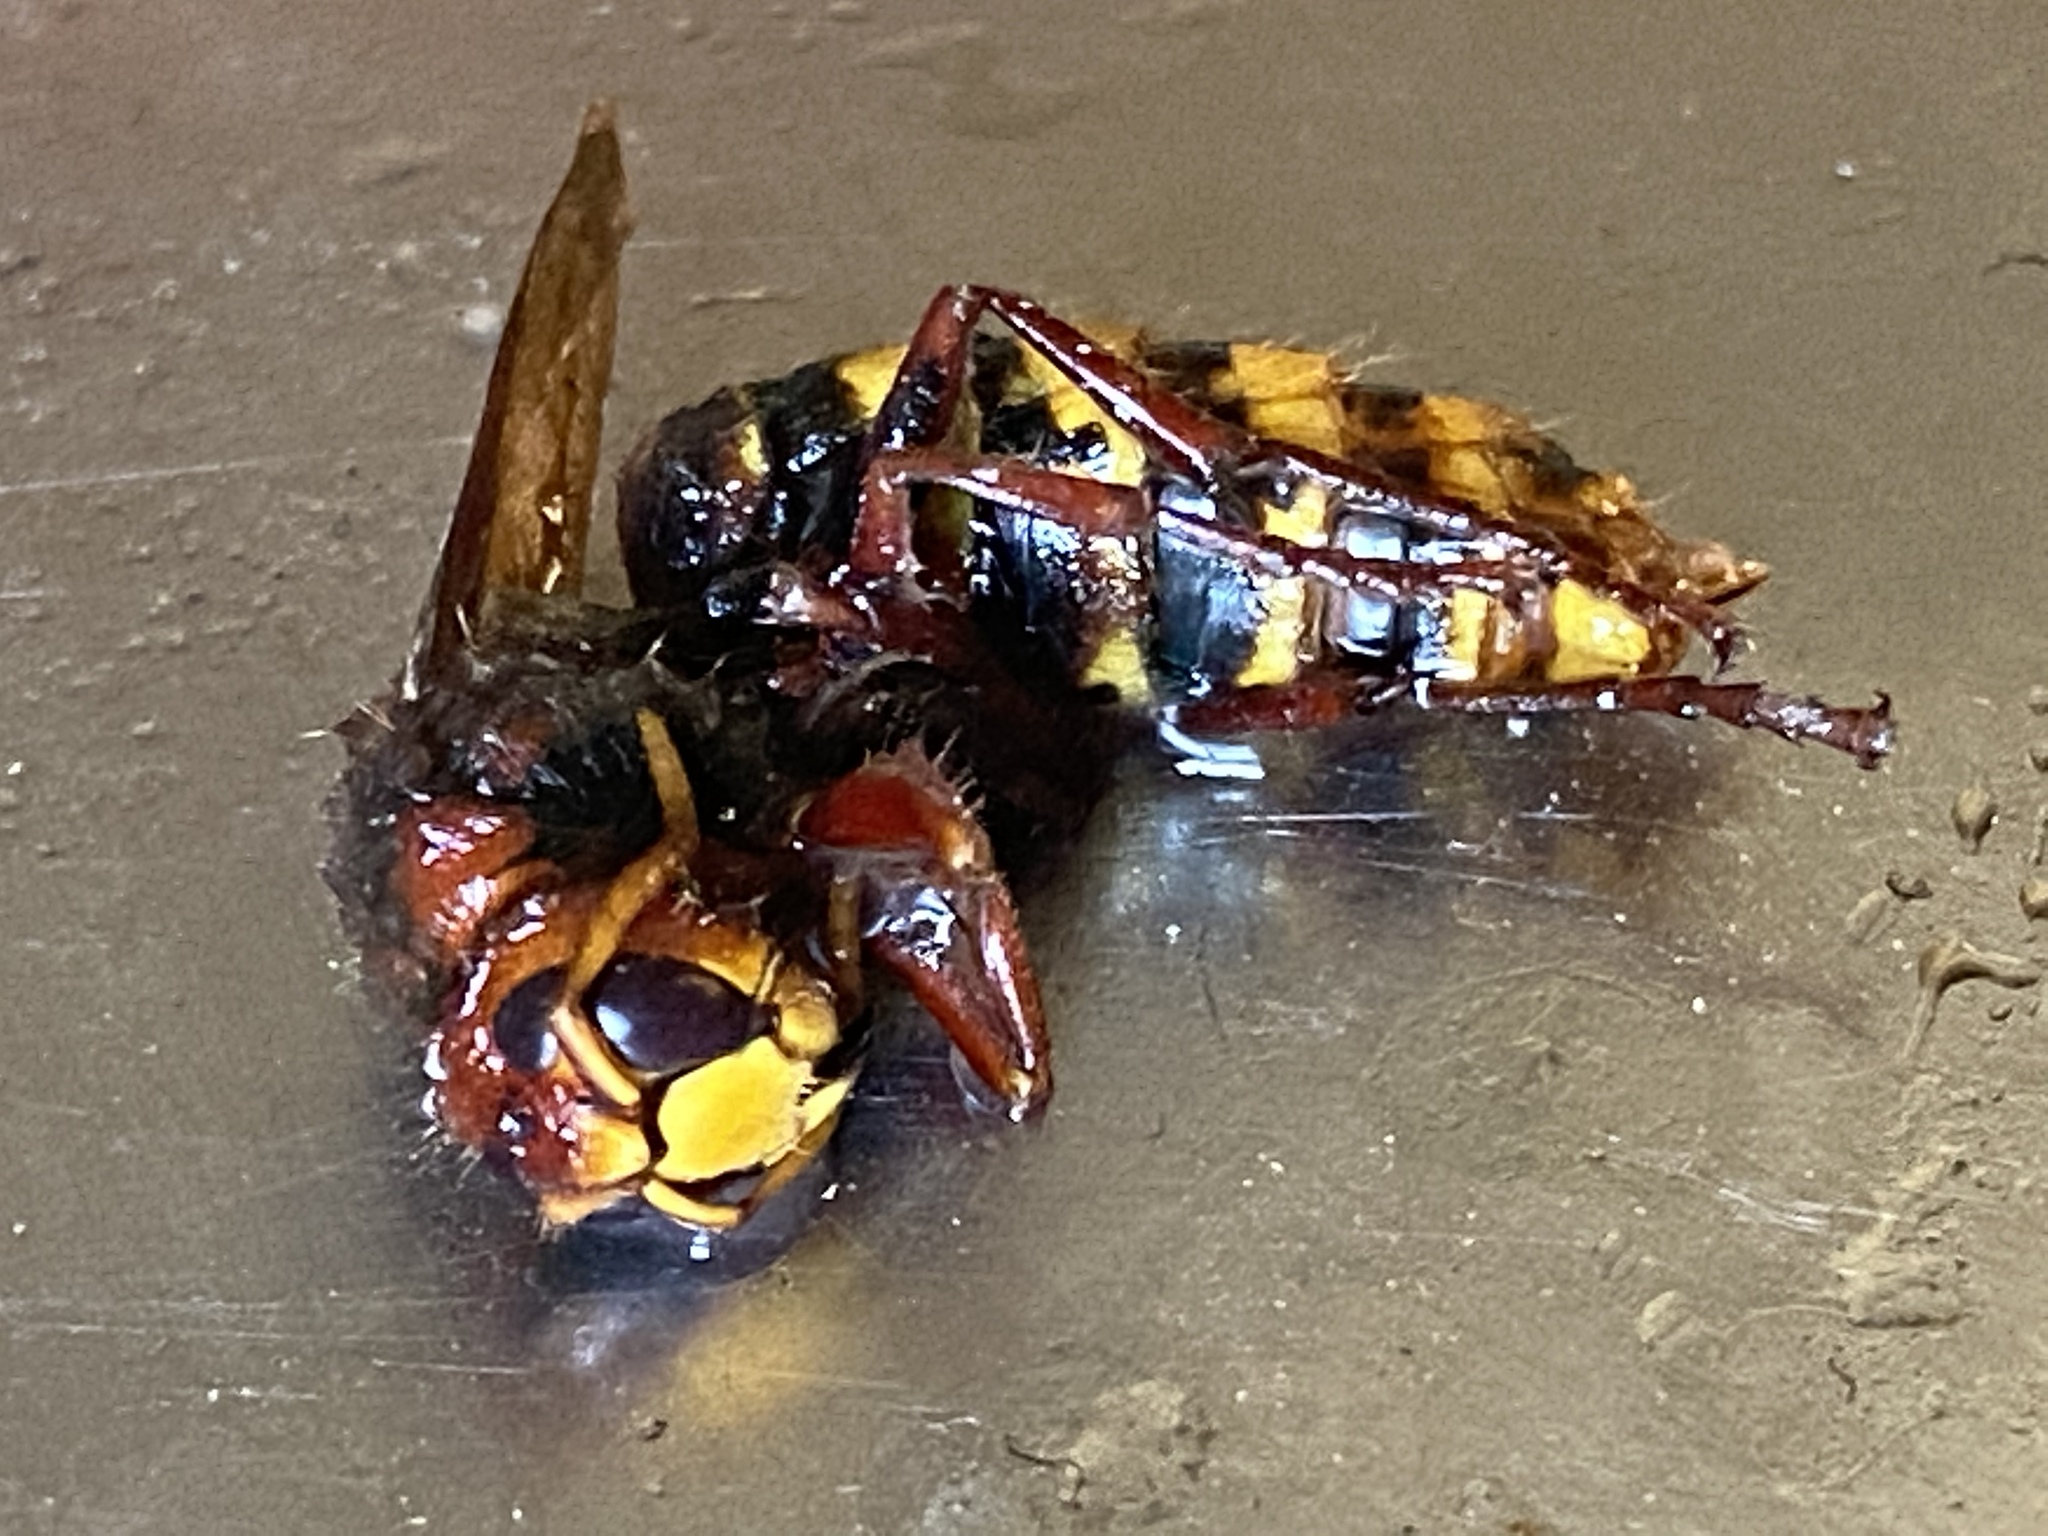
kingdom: Animalia
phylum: Arthropoda
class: Insecta
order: Hymenoptera
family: Vespidae
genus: Vespa
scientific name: Vespa crabro
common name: Hornet
